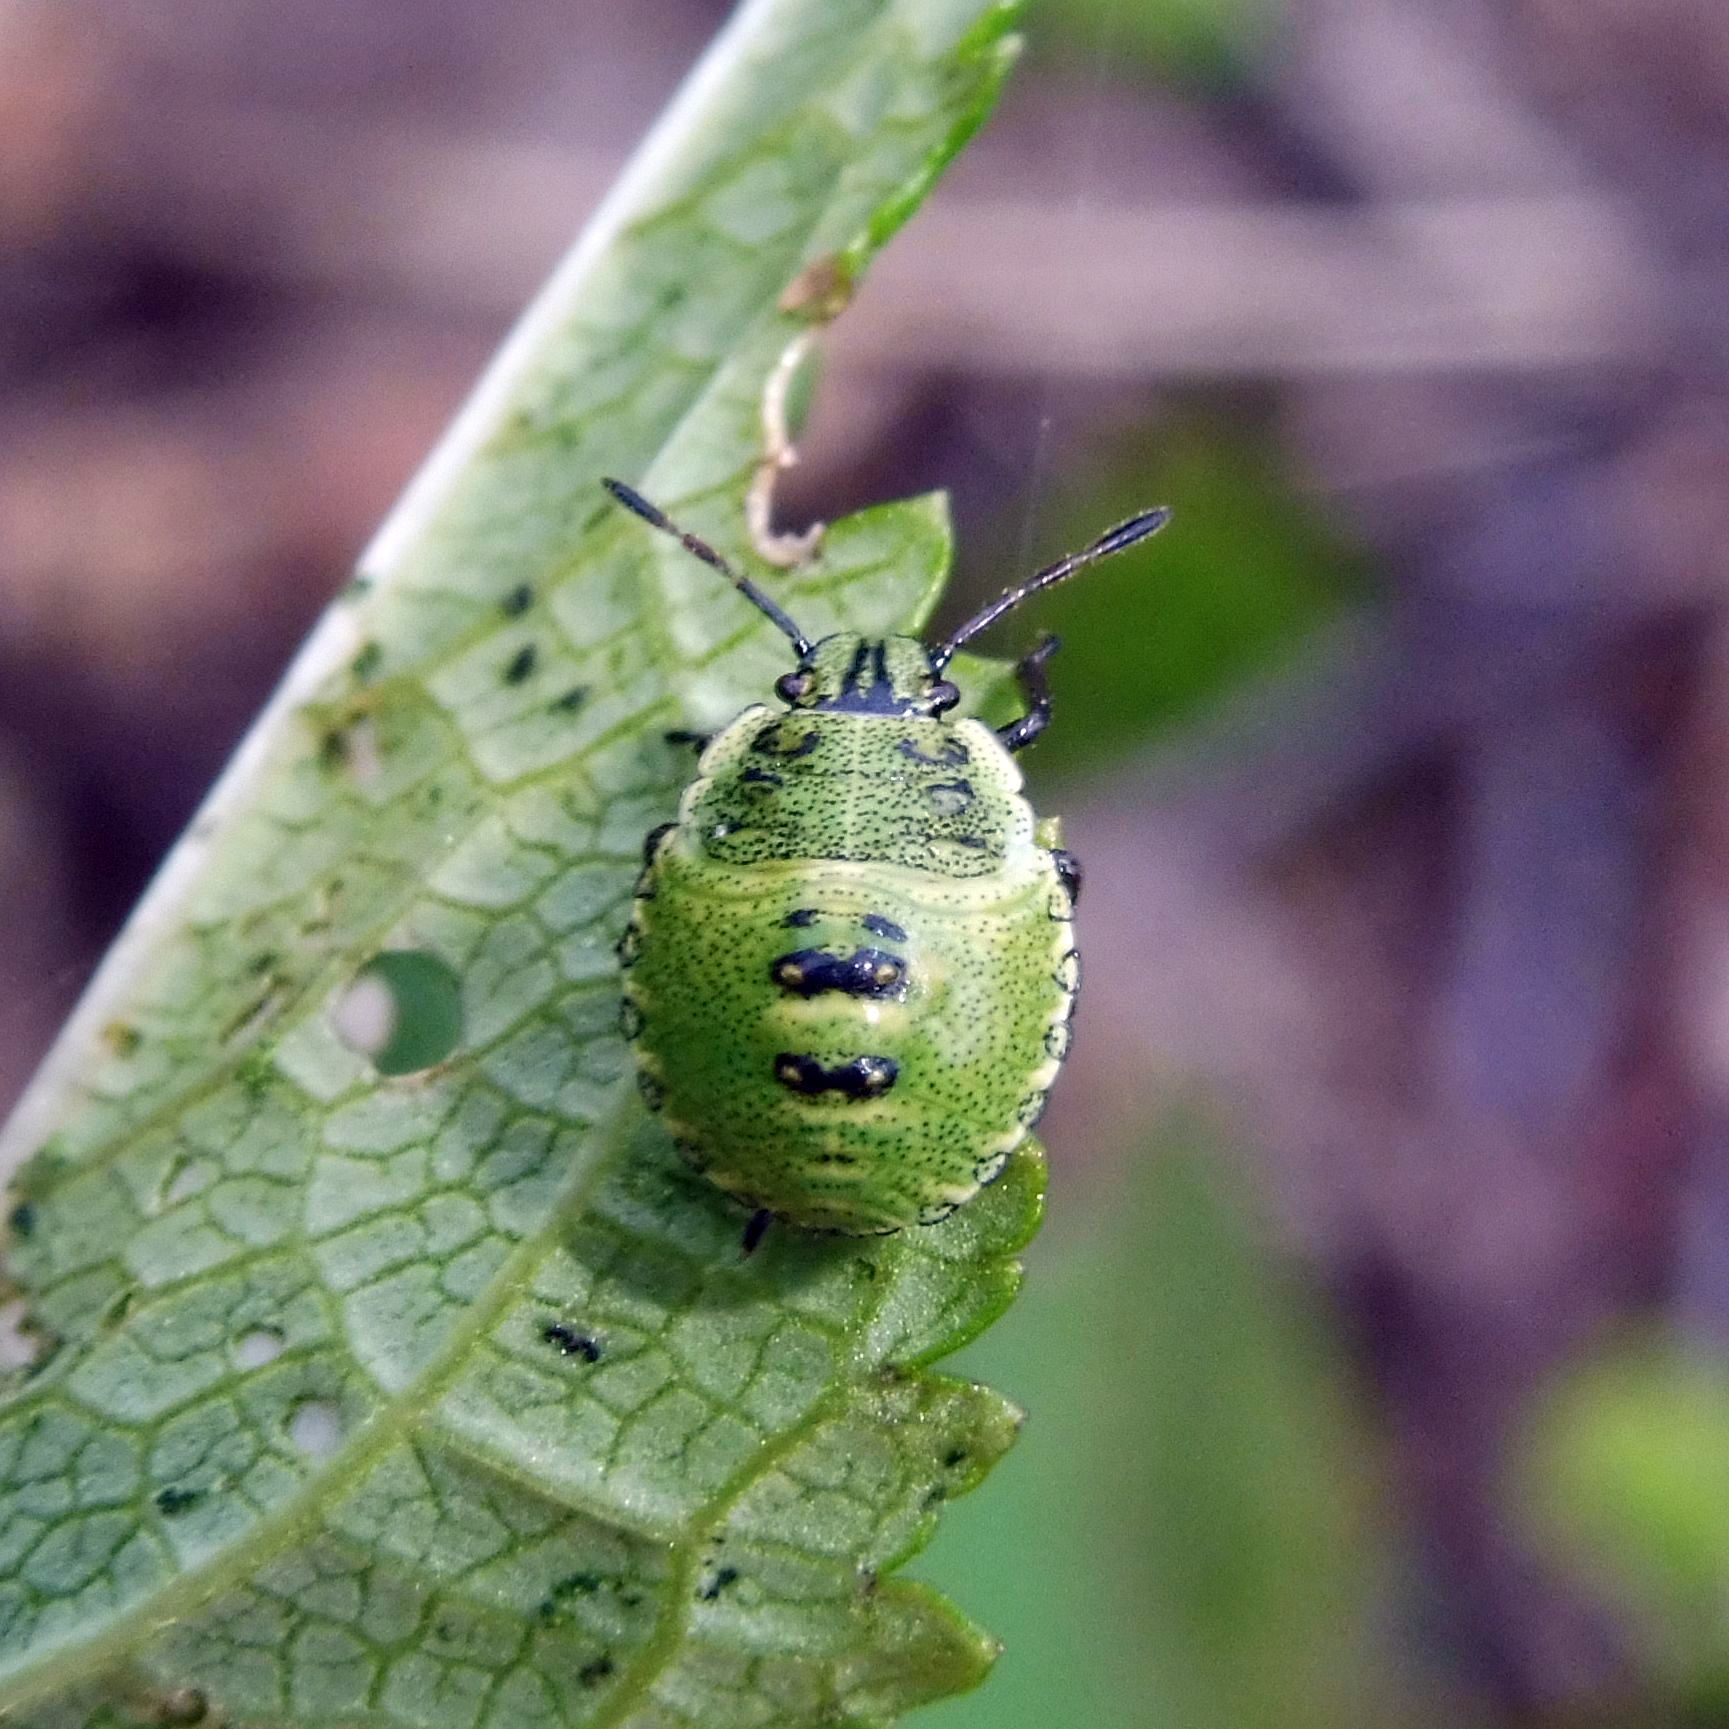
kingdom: Animalia
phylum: Arthropoda
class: Insecta
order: Hemiptera
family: Pentatomidae
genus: Palomena
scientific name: Palomena prasina
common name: Green shieldbug
